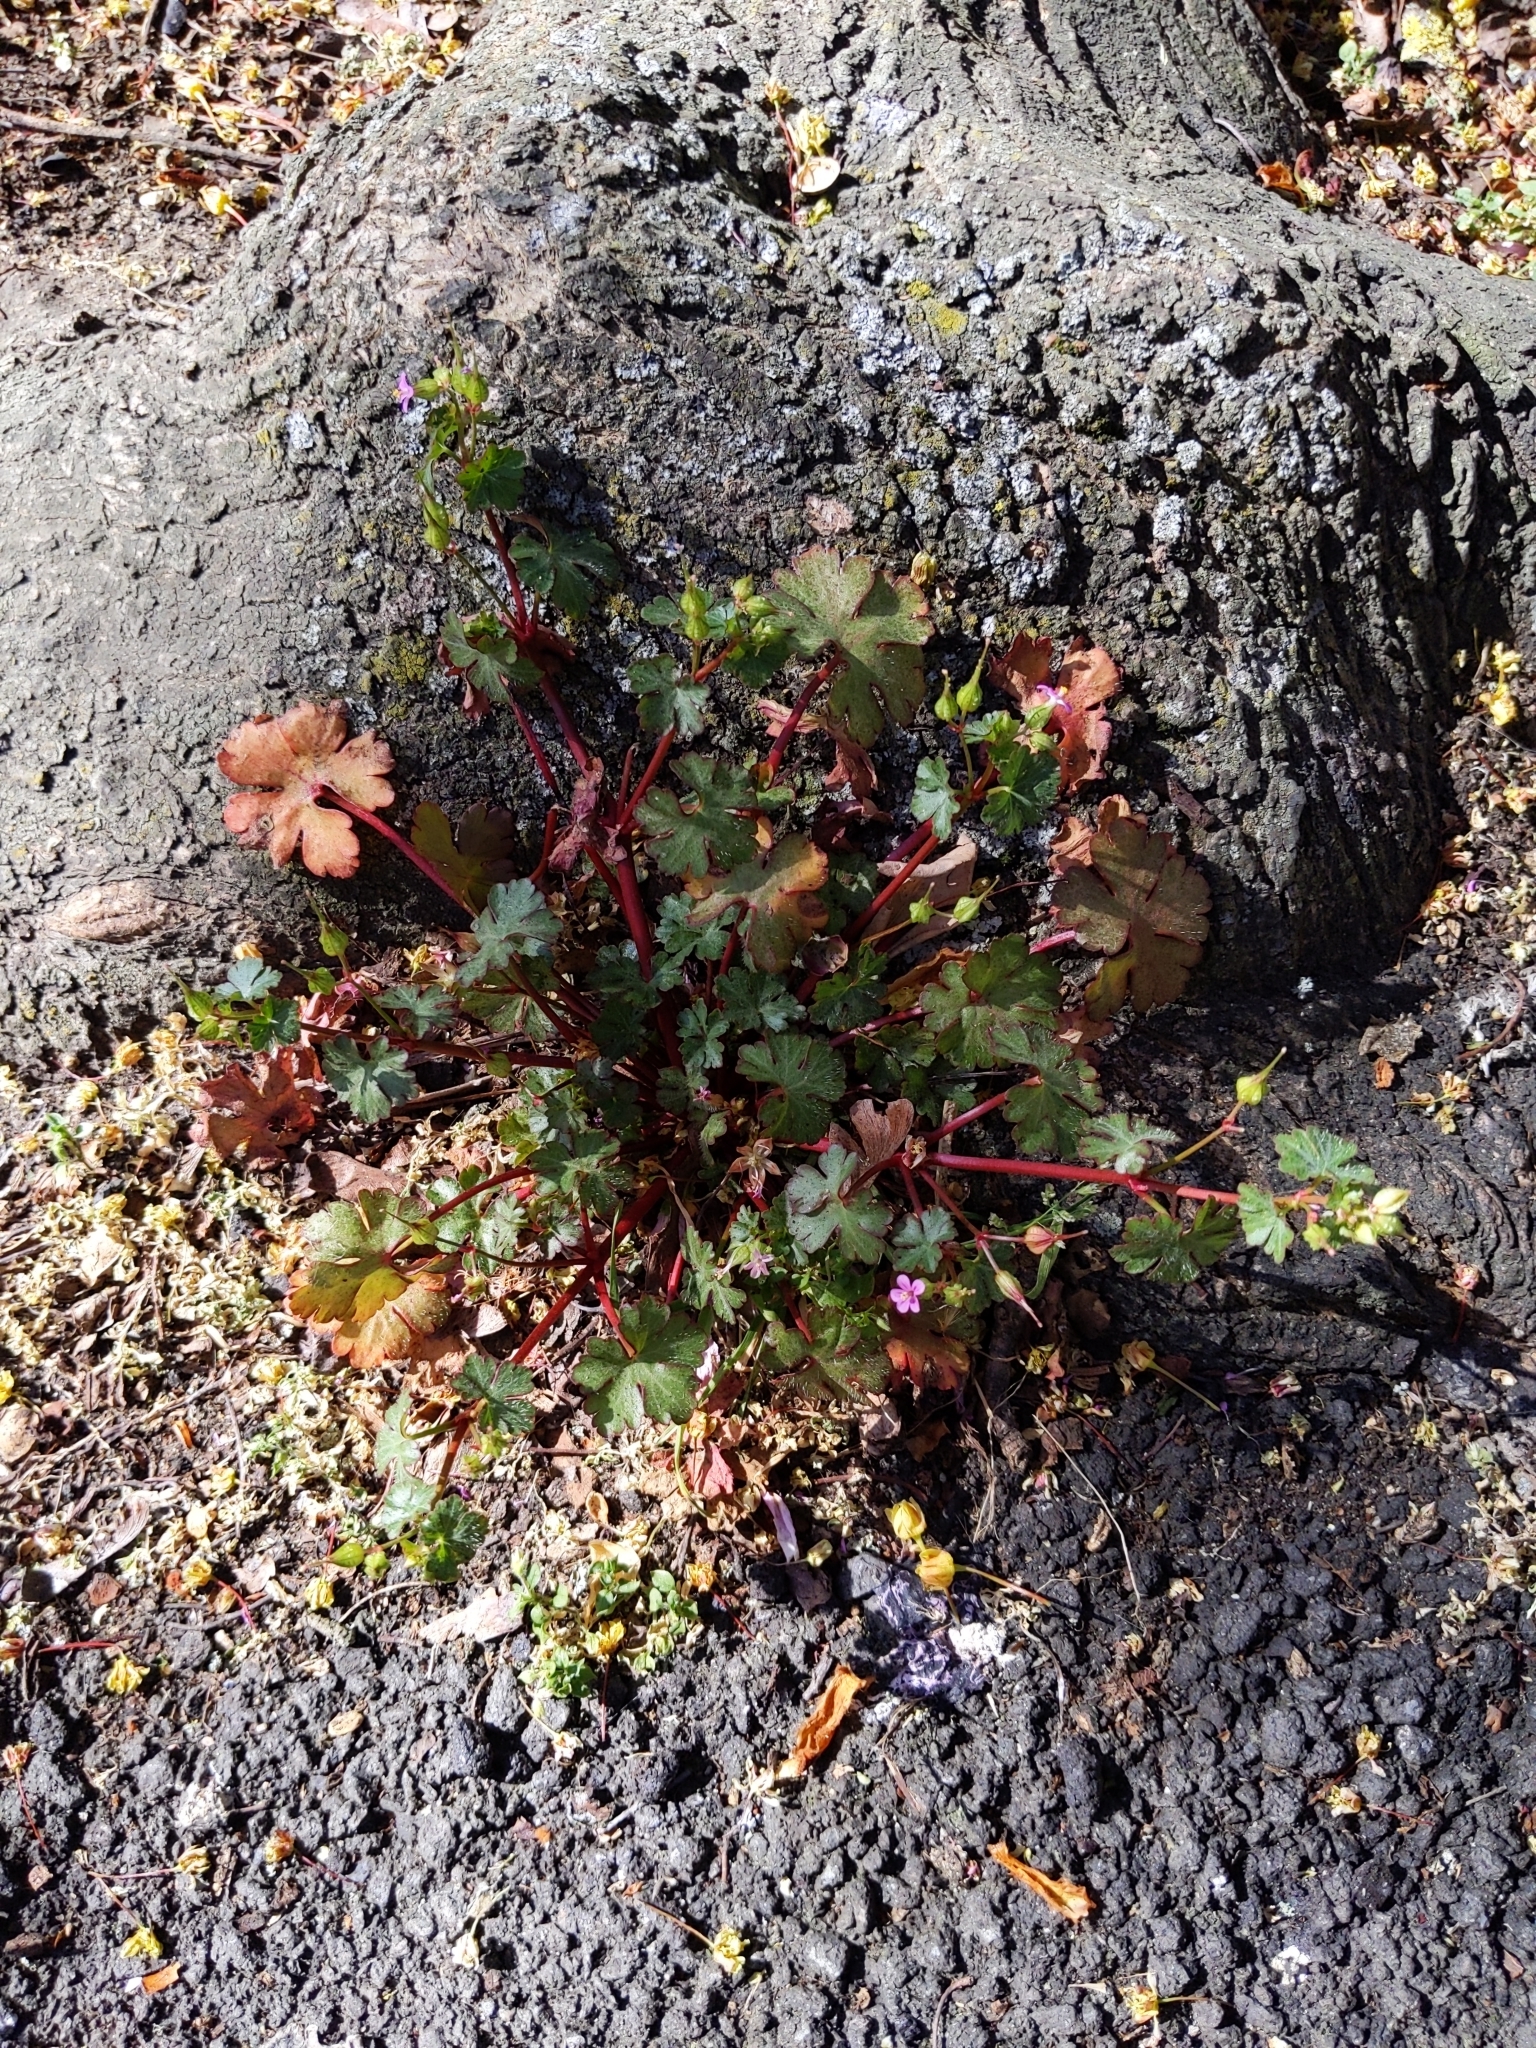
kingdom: Plantae
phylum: Tracheophyta
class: Magnoliopsida
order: Geraniales
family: Geraniaceae
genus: Geranium
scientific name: Geranium lucidum
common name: Shining crane's-bill
